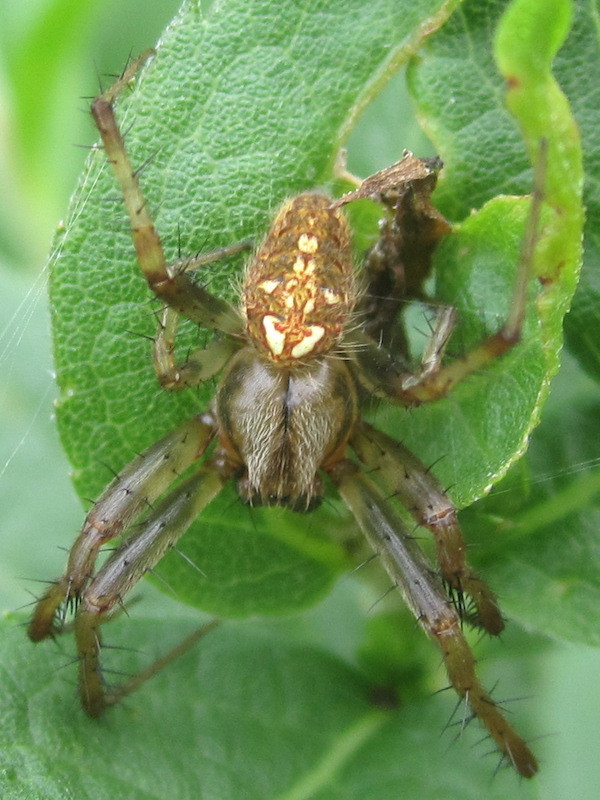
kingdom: Animalia
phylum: Arthropoda
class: Arachnida
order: Araneae
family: Araneidae
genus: Neoscona
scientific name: Neoscona arabesca
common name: Orb weavers
